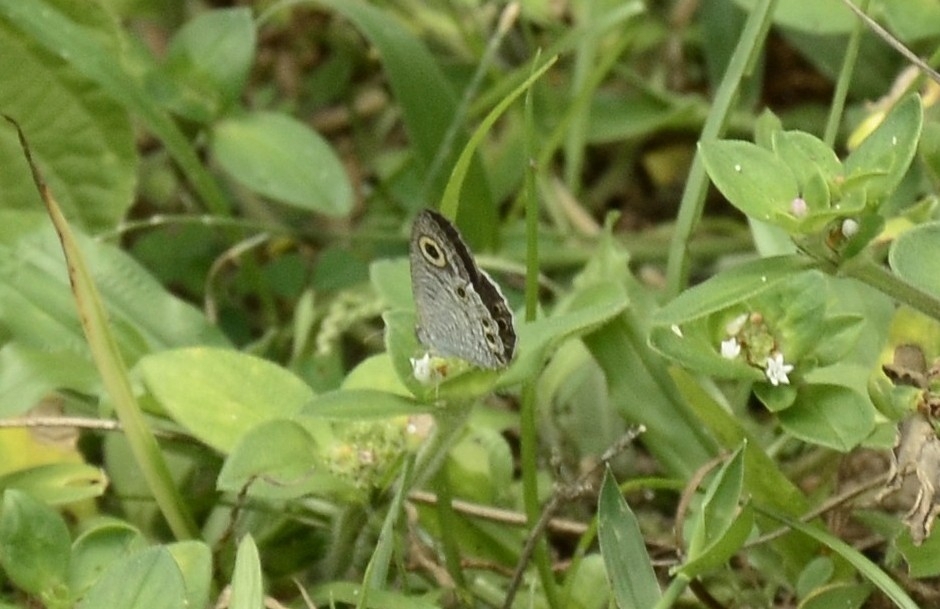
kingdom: Animalia
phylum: Arthropoda
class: Insecta
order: Lepidoptera
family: Nymphalidae
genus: Ypthima
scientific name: Ypthima huebneri
